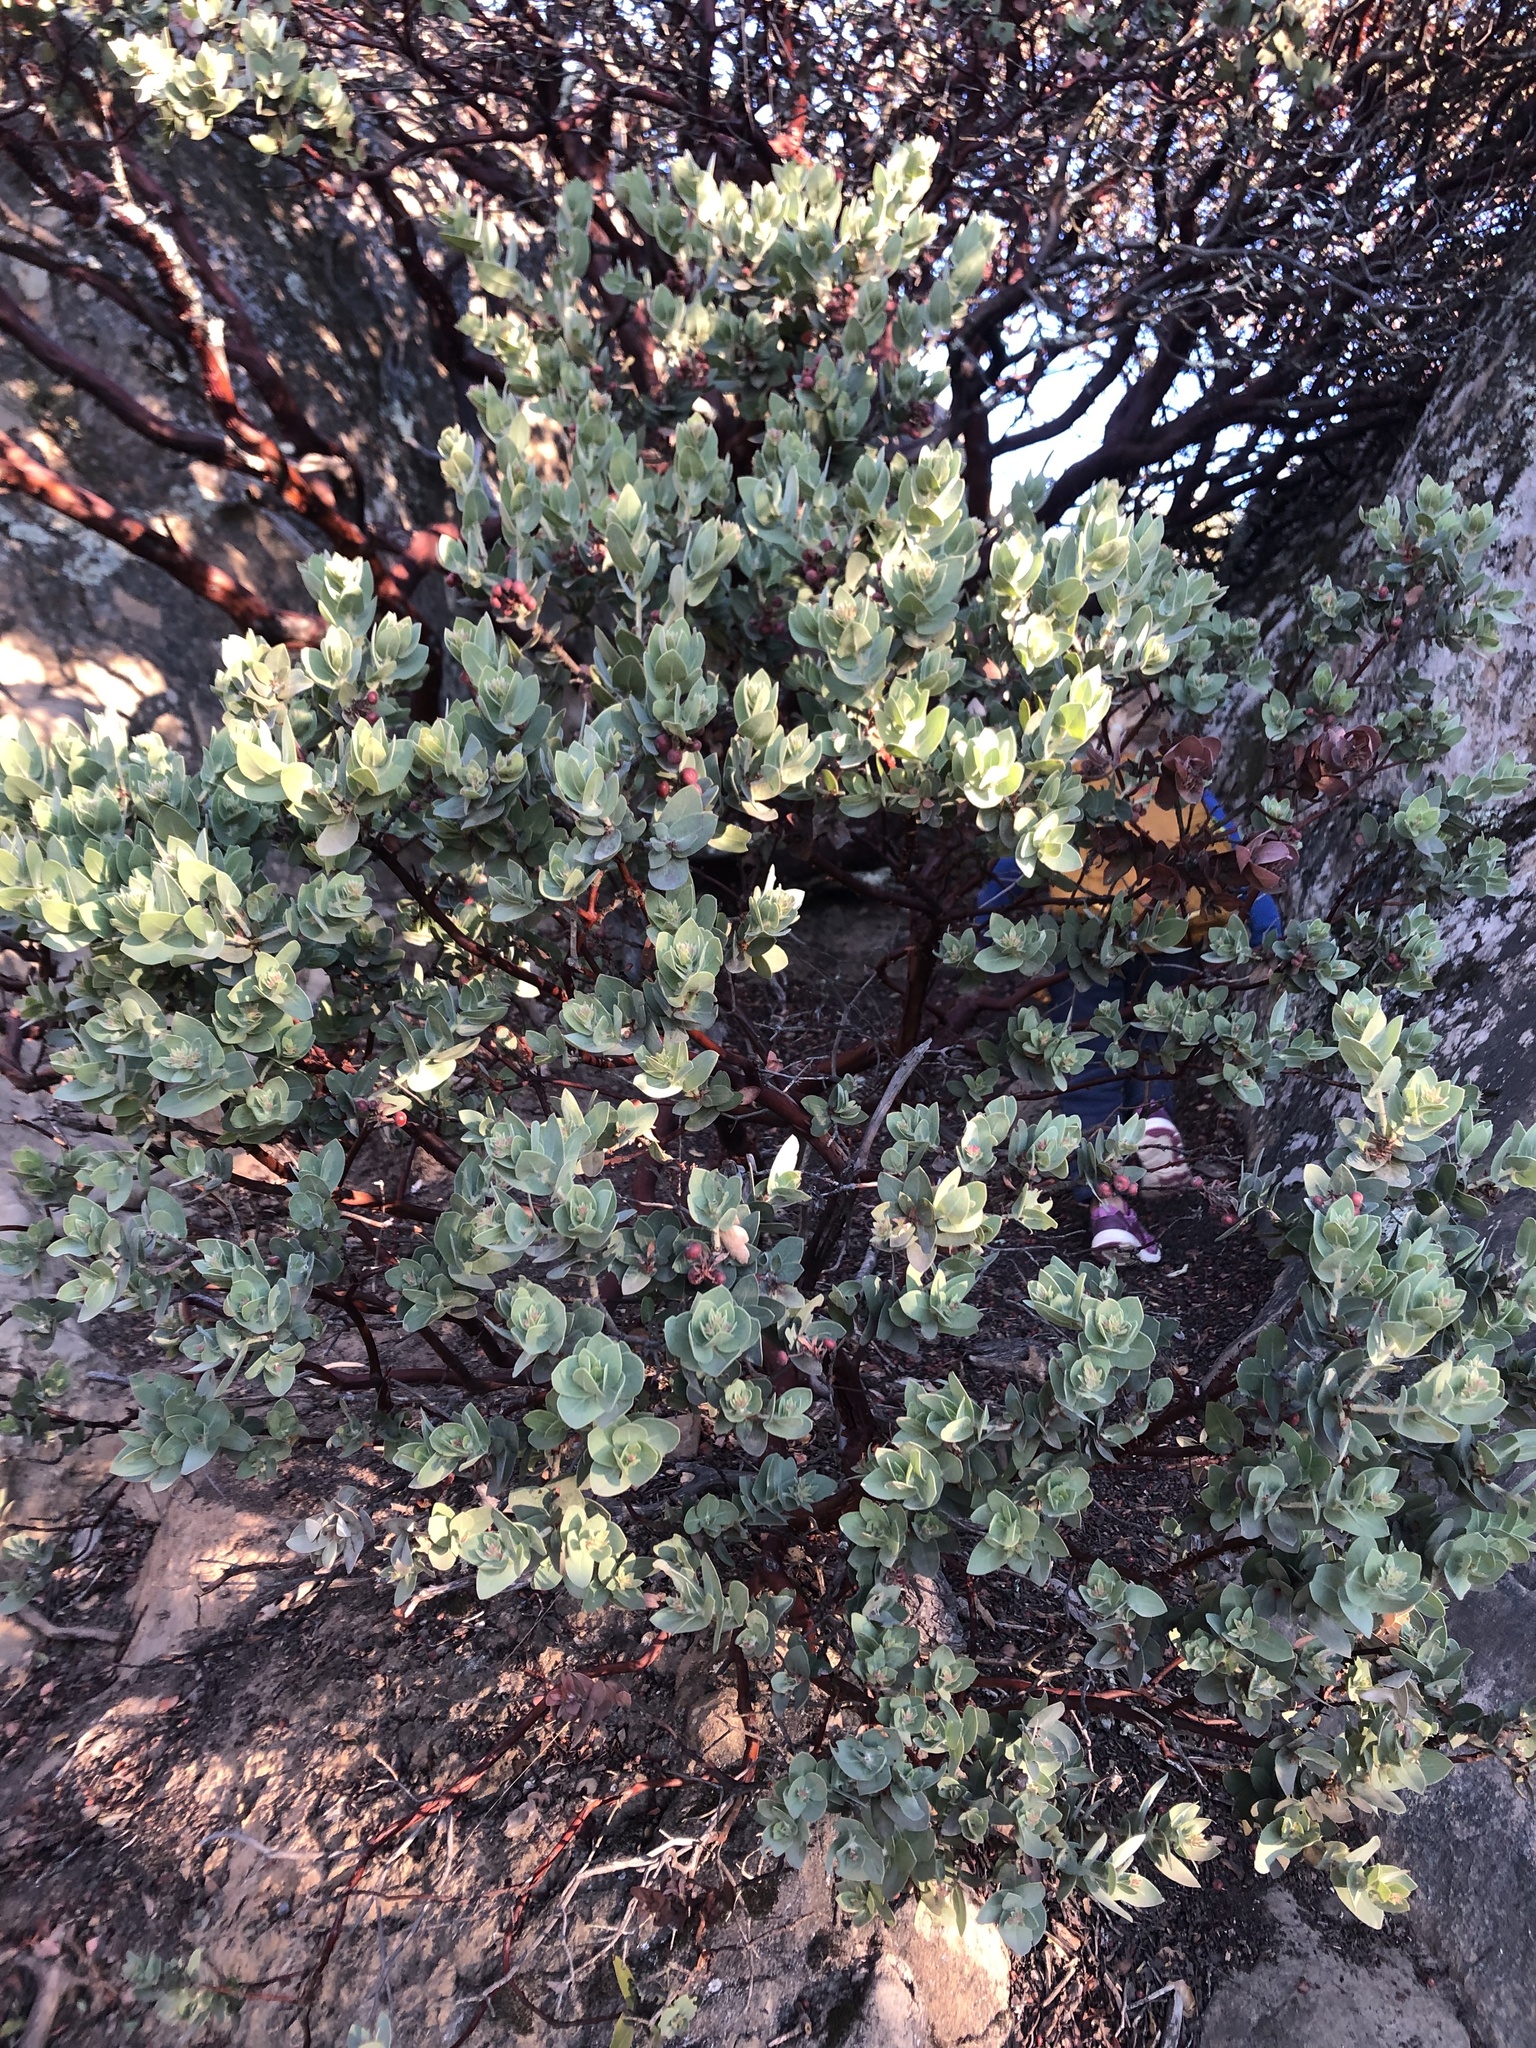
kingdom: Plantae
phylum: Tracheophyta
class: Magnoliopsida
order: Ericales
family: Ericaceae
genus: Arctostaphylos
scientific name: Arctostaphylos auriculata
